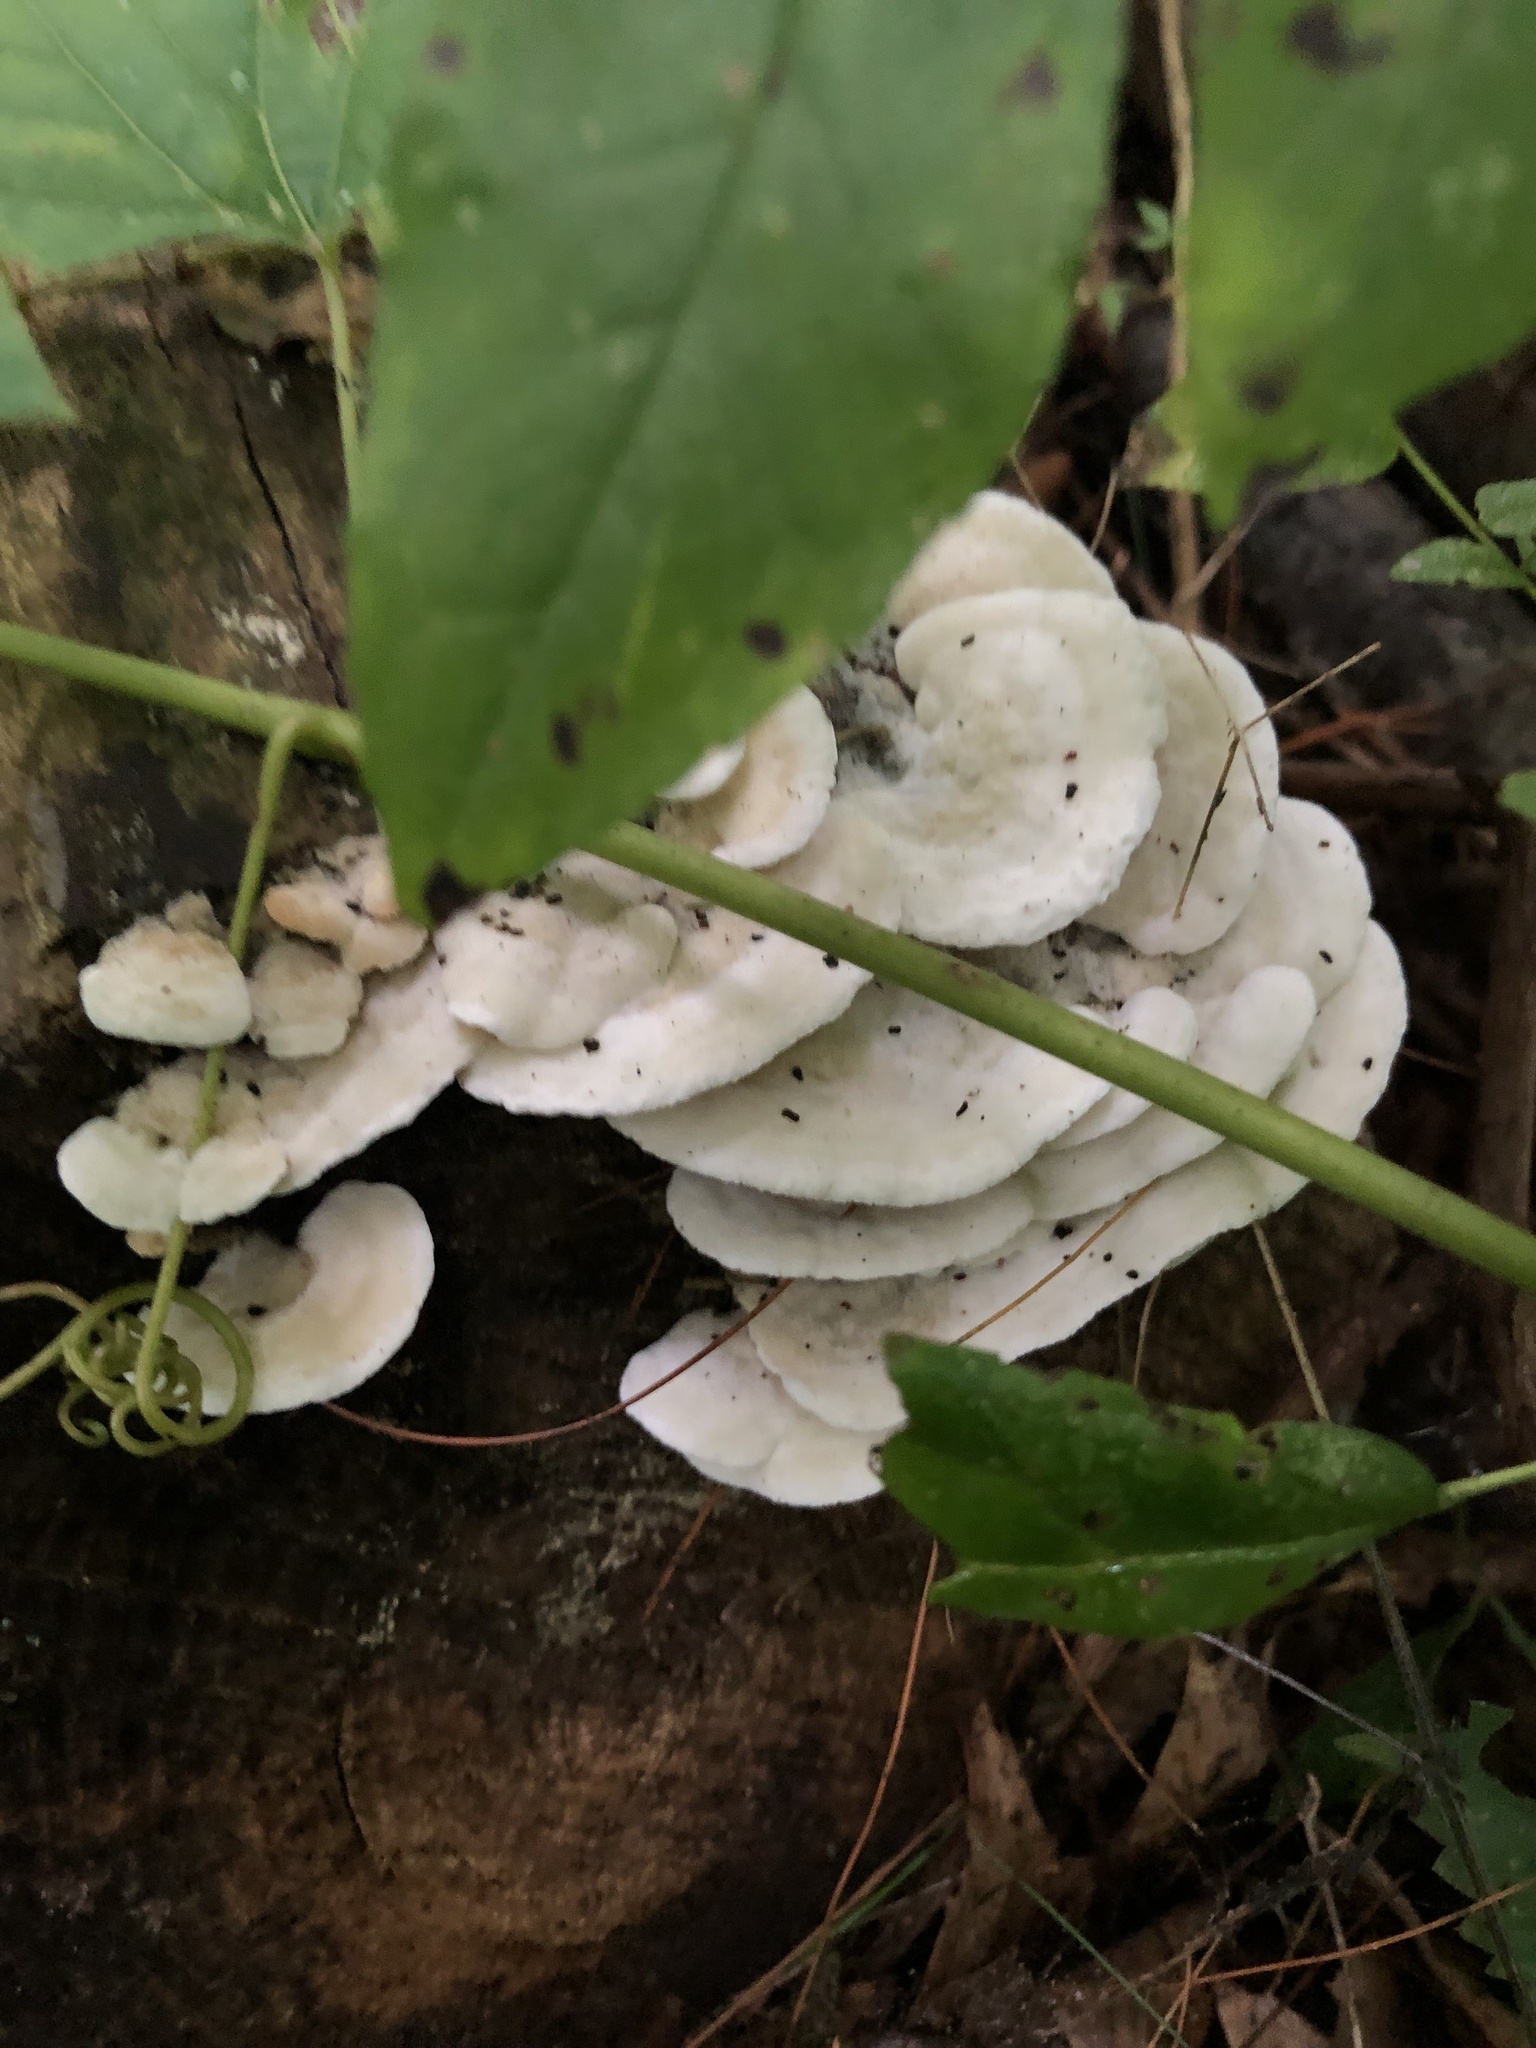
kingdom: Fungi
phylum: Basidiomycota
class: Agaricomycetes
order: Polyporales
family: Irpicaceae
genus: Vitreoporus
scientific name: Vitreoporus dichrous
